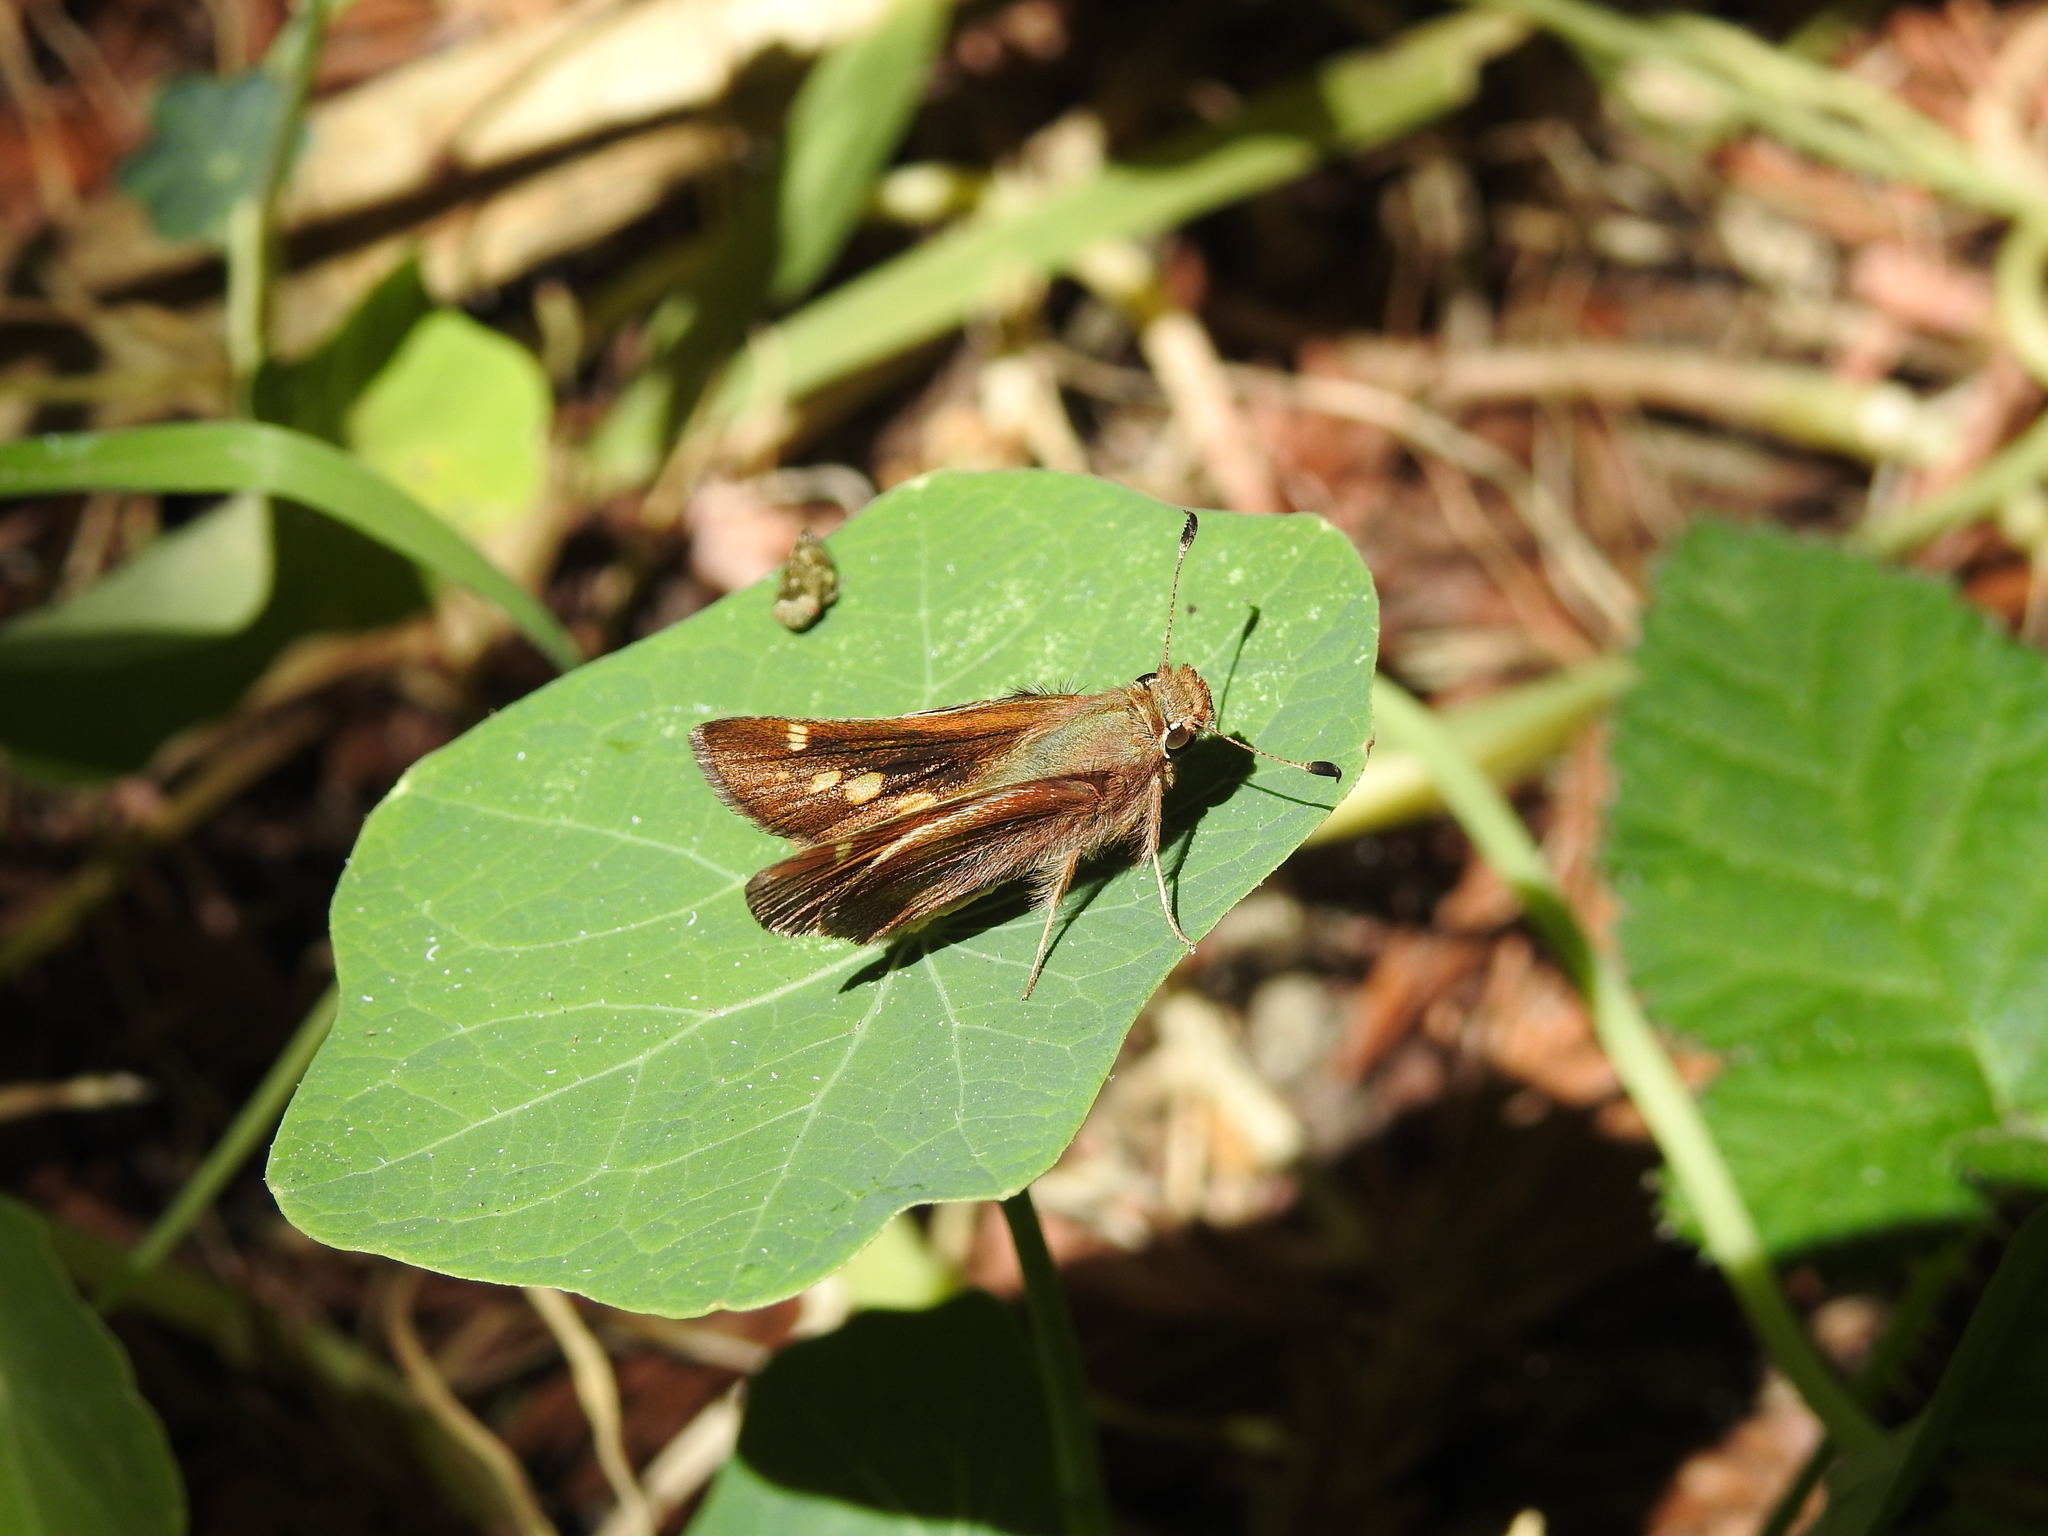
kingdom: Animalia
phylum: Arthropoda
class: Insecta
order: Lepidoptera
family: Hesperiidae
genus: Lon
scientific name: Lon melane
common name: Umber skipper
